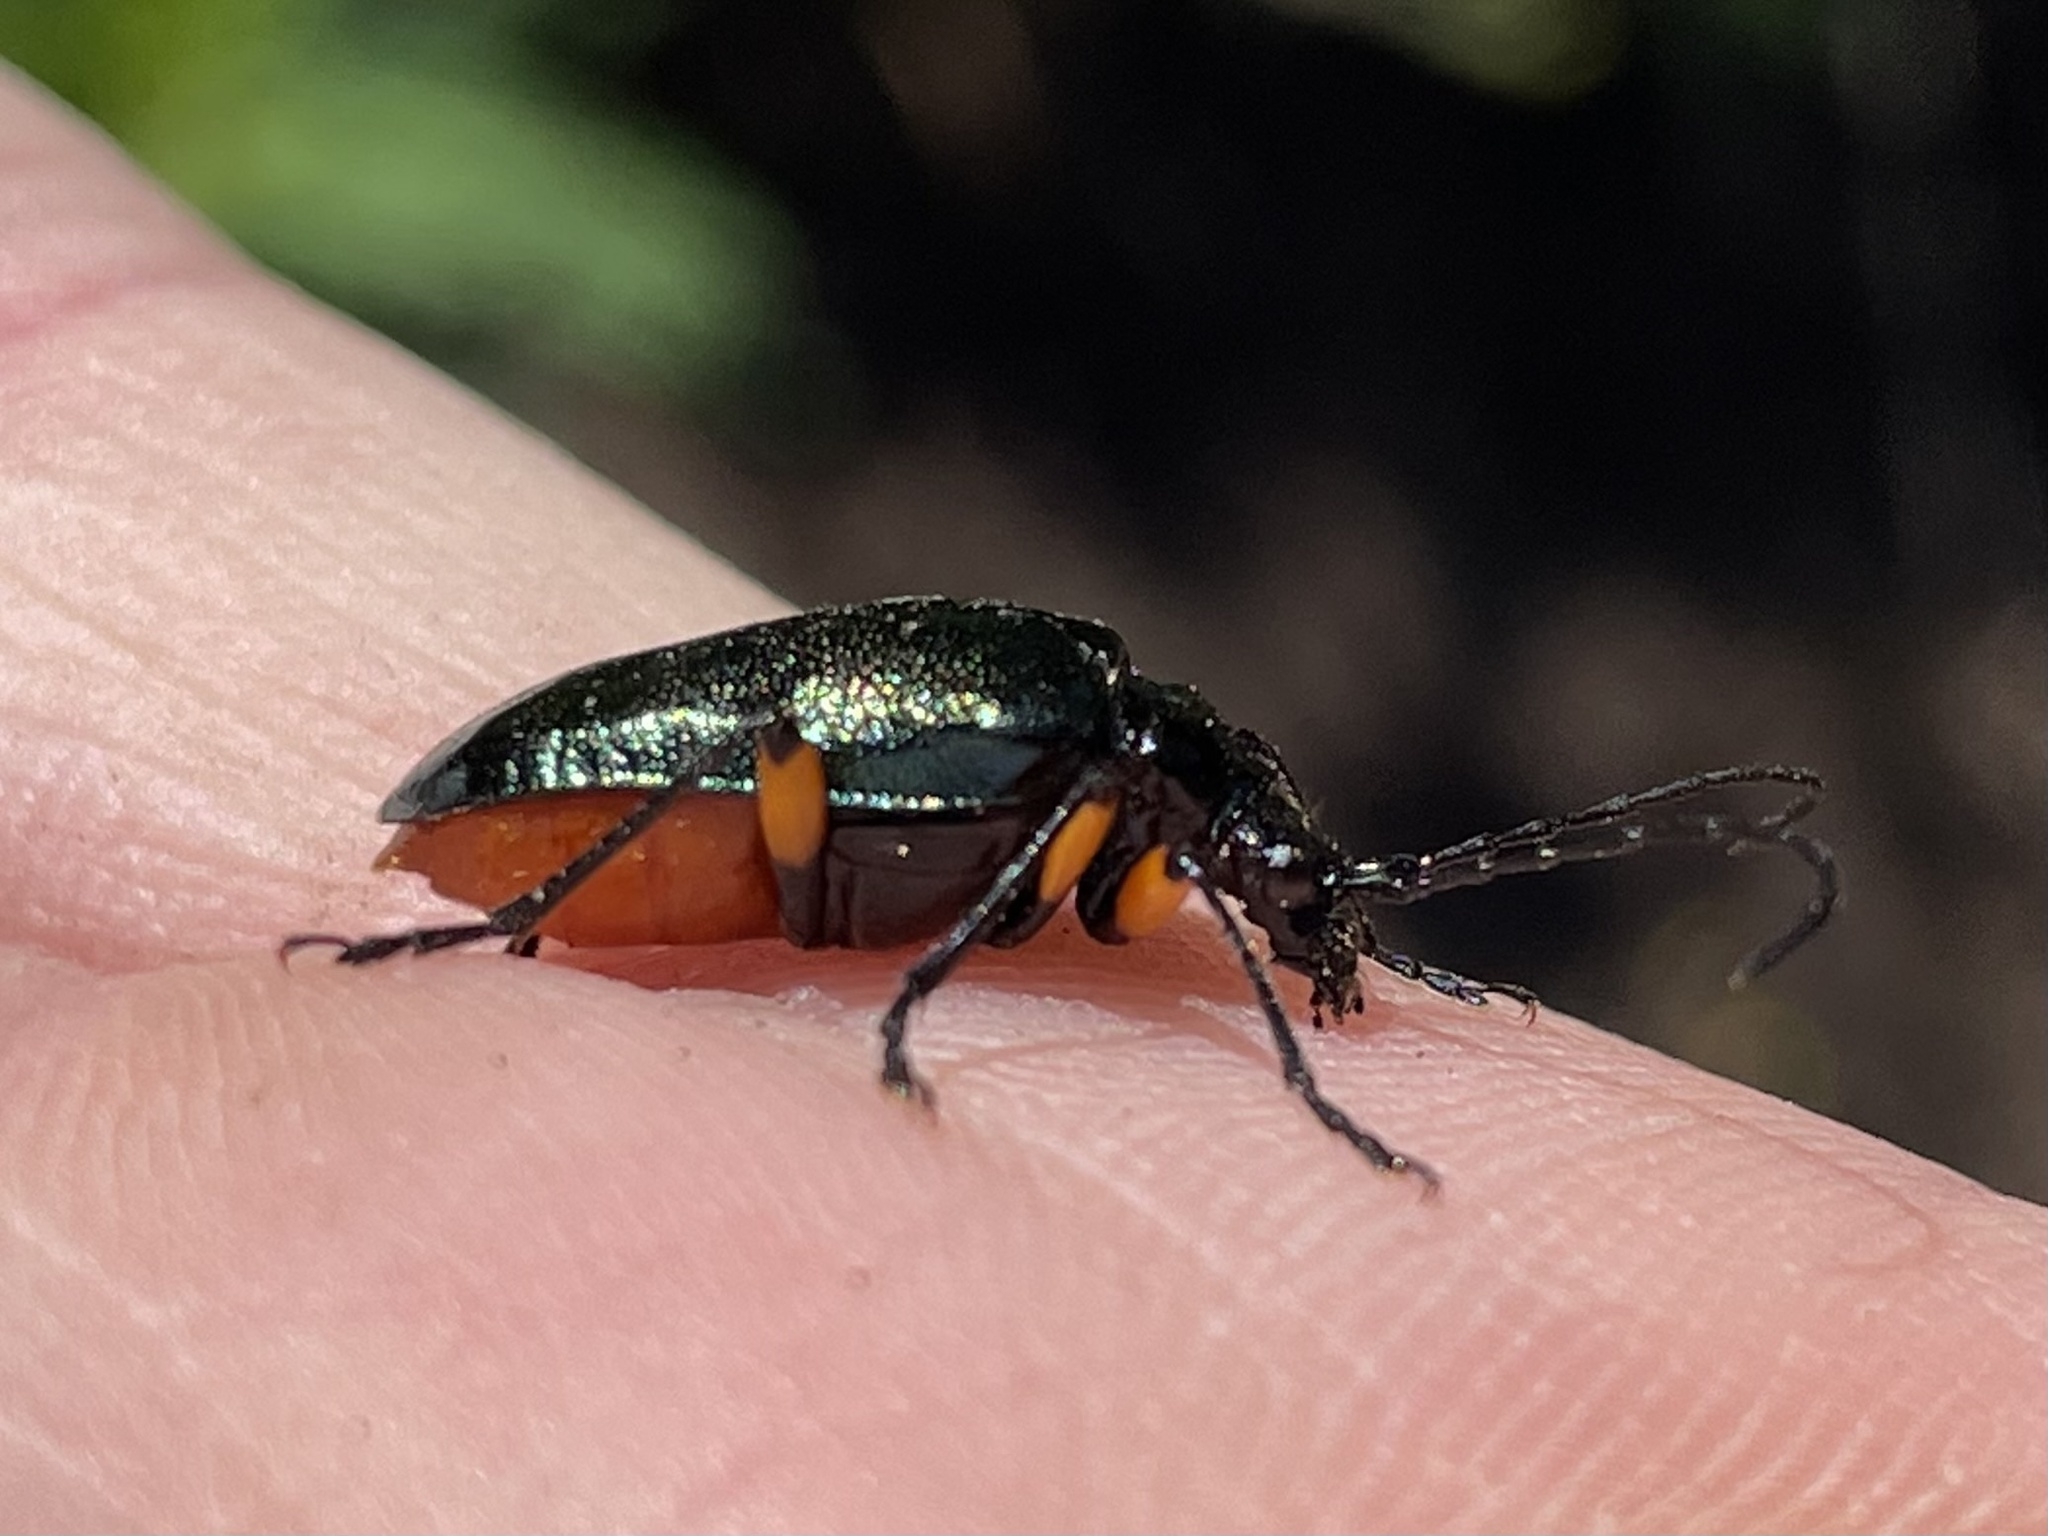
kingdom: Animalia
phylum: Arthropoda
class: Insecta
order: Coleoptera
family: Cerambycidae
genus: Pseudogaurotina
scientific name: Pseudogaurotina cressoni
